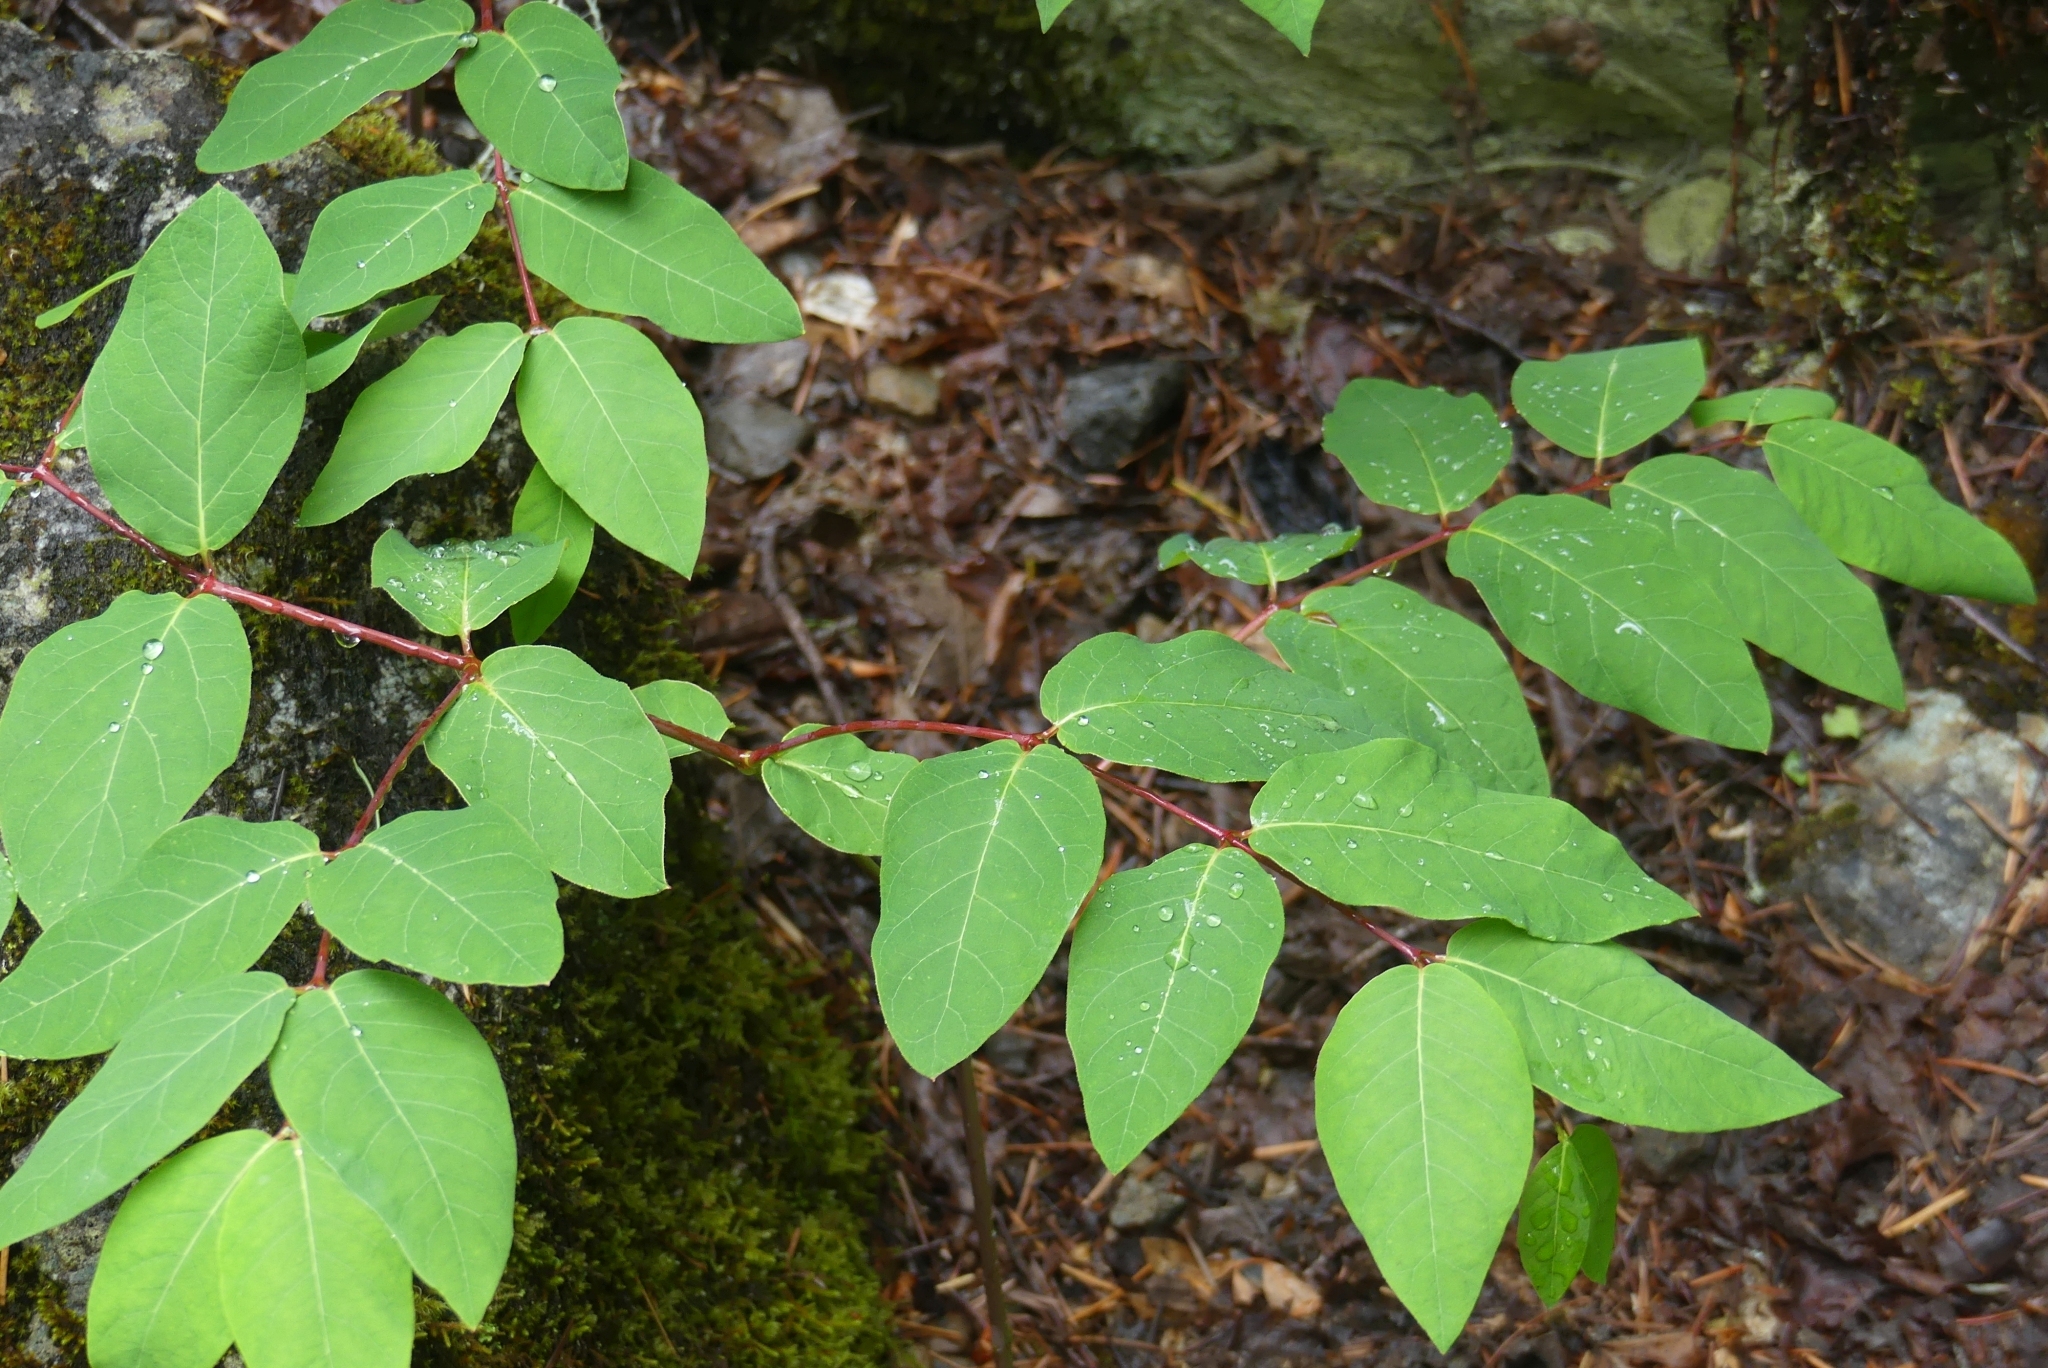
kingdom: Plantae
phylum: Tracheophyta
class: Magnoliopsida
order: Gentianales
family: Apocynaceae
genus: Apocynum
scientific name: Apocynum androsaemifolium
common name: Spreading dogbane
